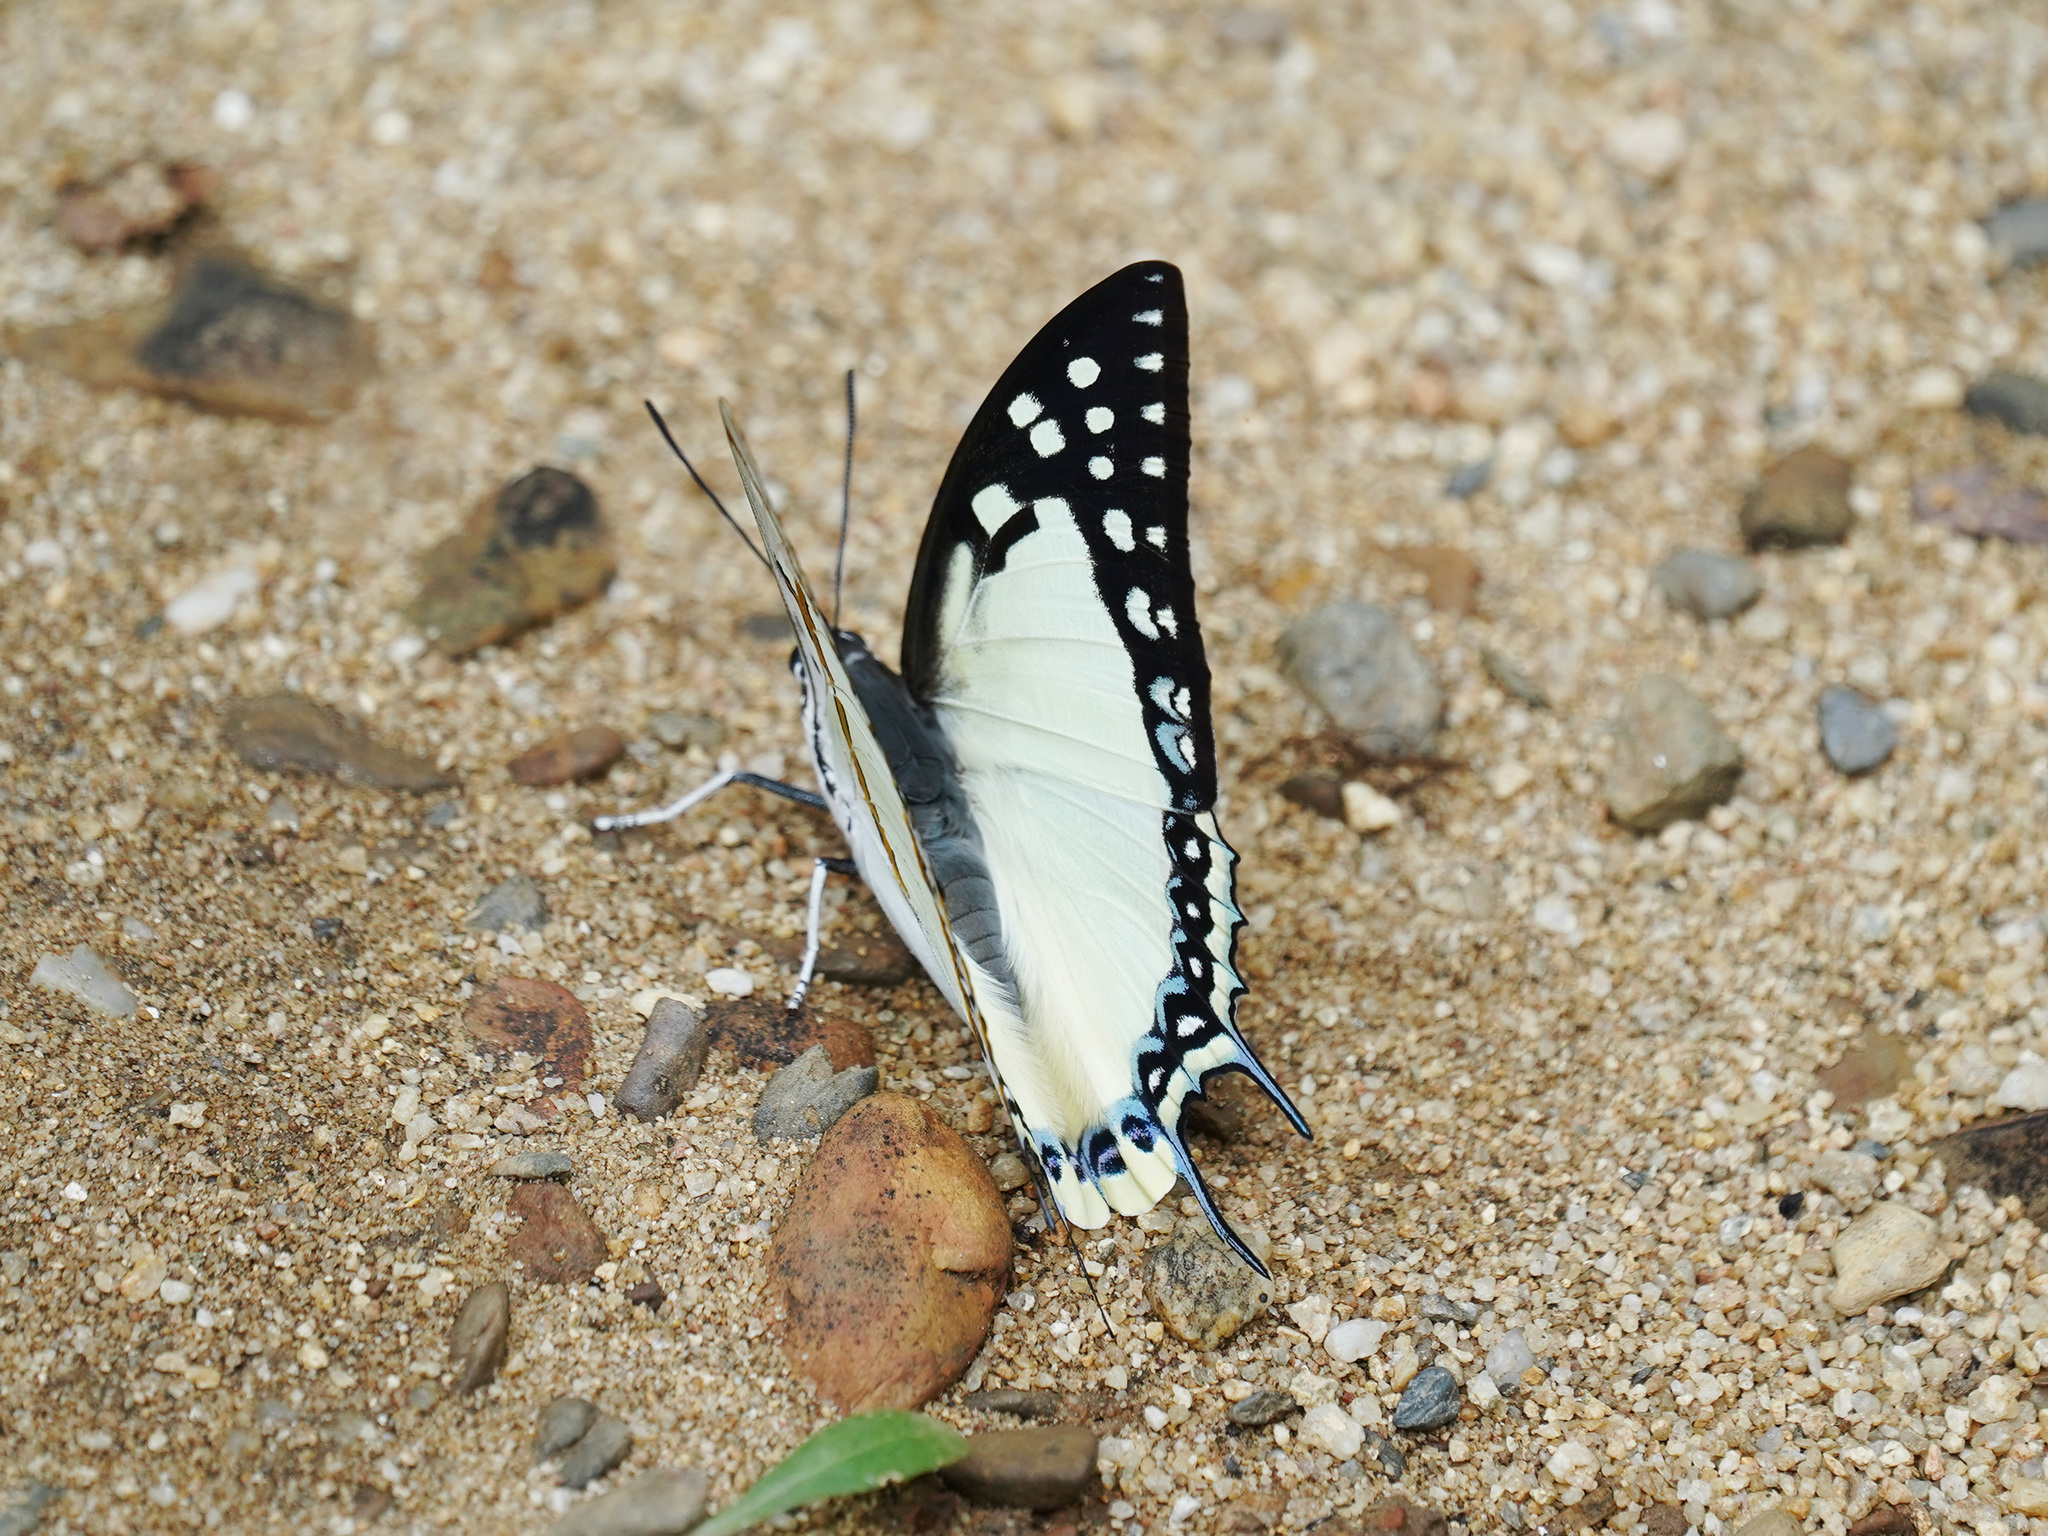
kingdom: Animalia
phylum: Arthropoda
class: Insecta
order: Lepidoptera
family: Nymphalidae
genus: Polyura
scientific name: Polyura eudamippus
